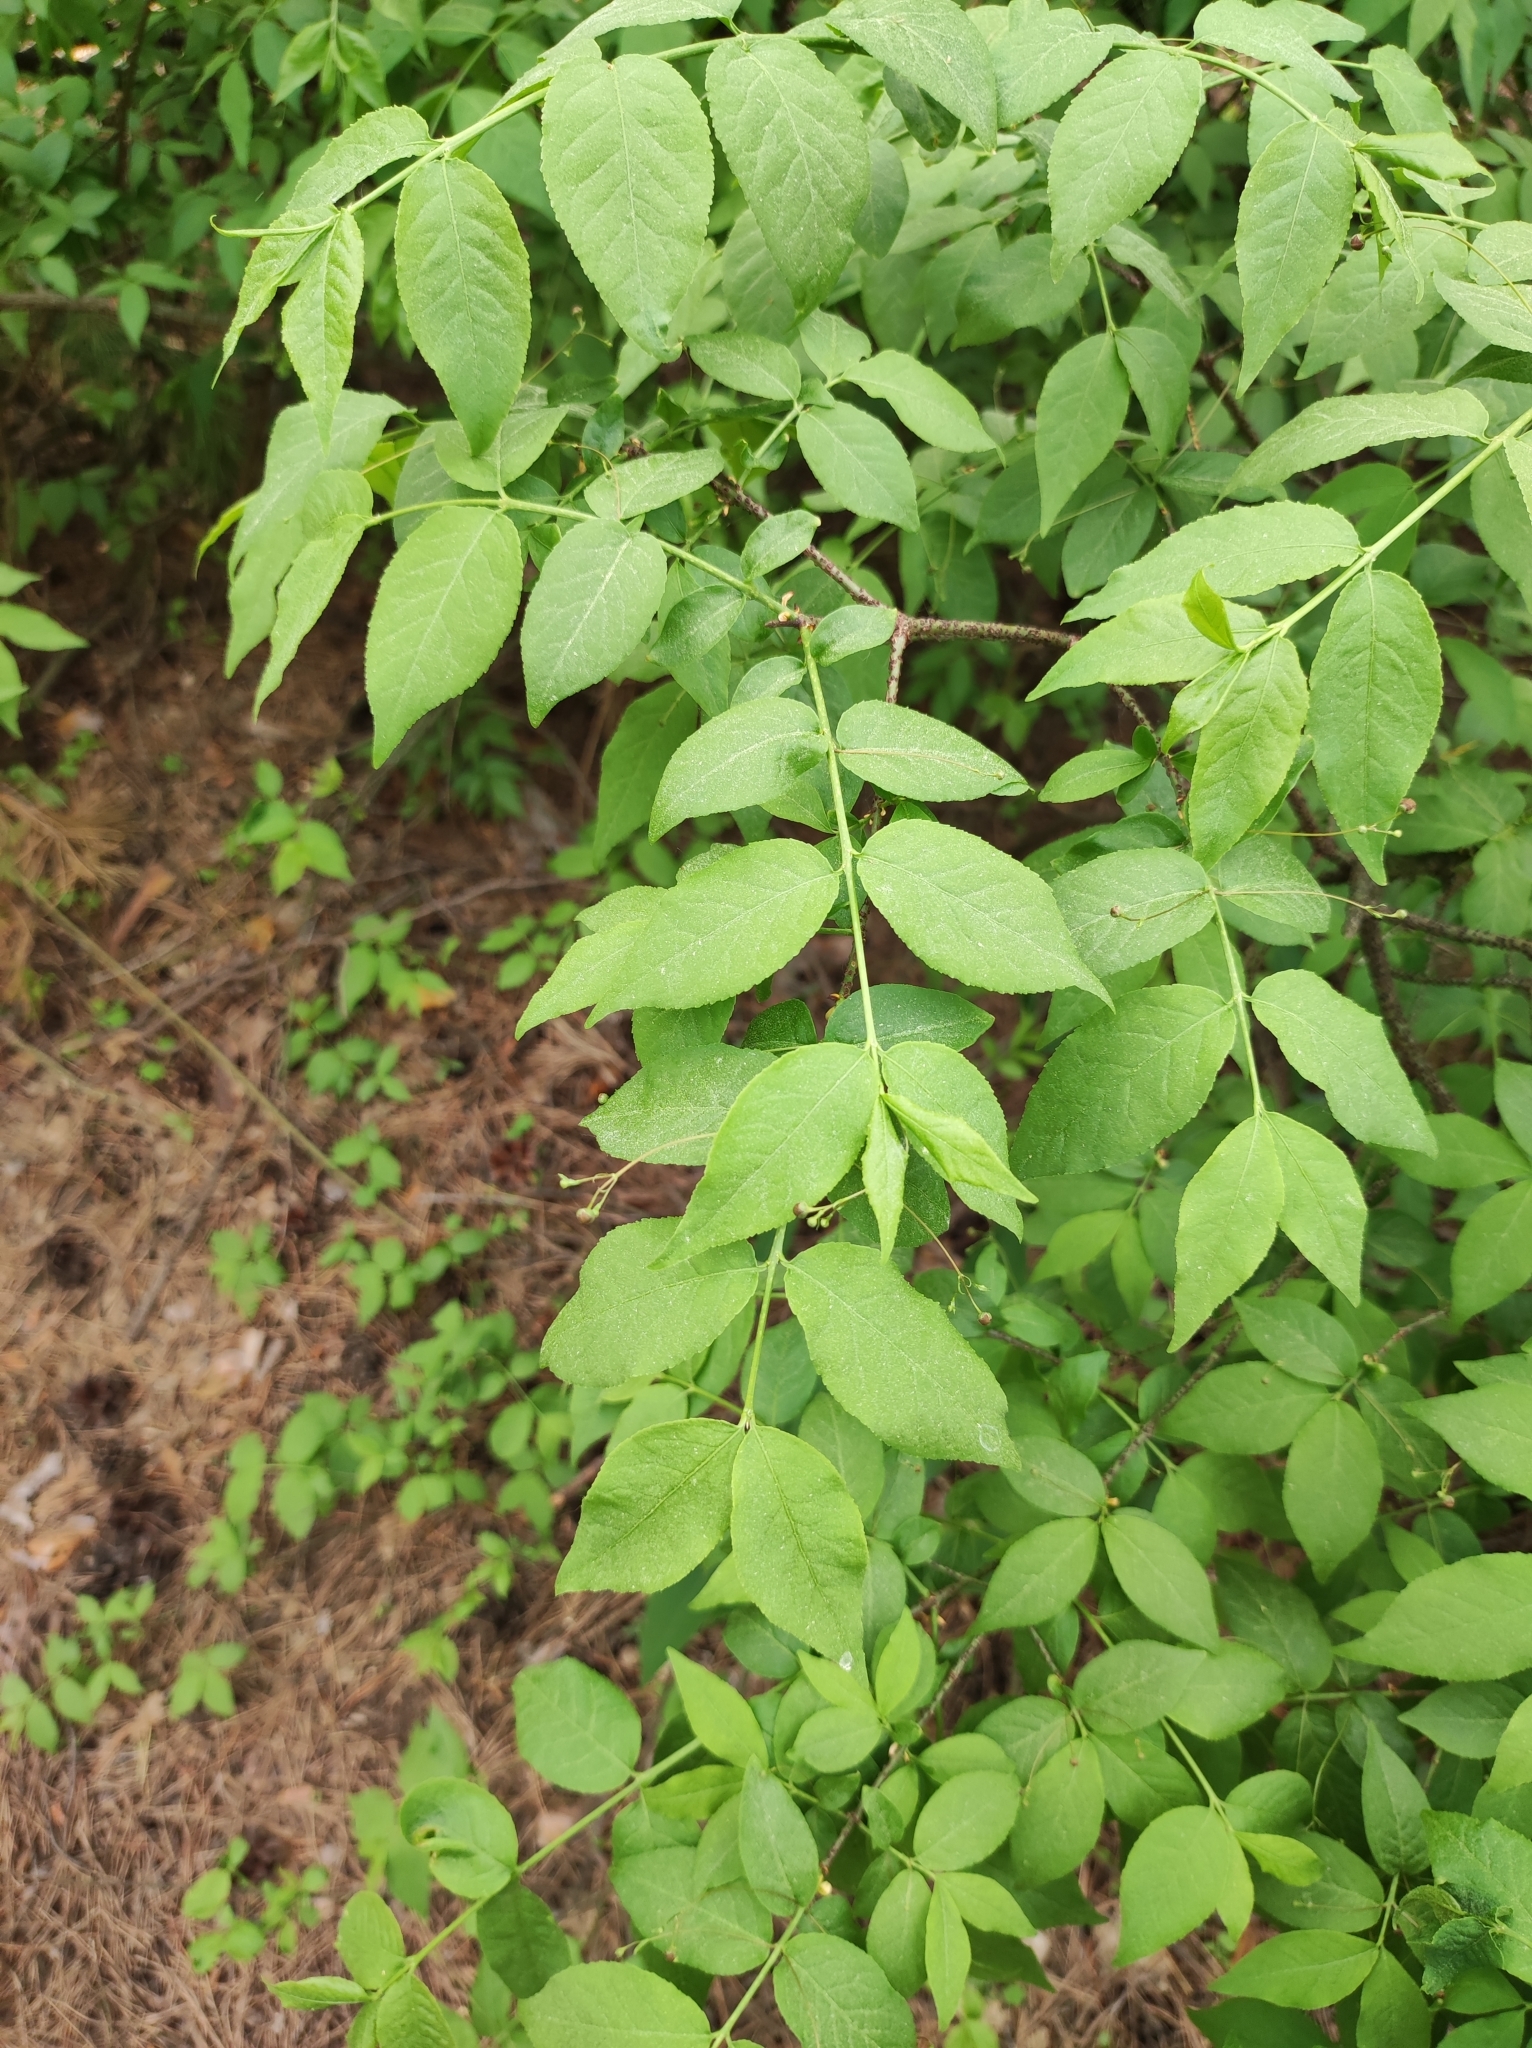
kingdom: Plantae
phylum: Tracheophyta
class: Magnoliopsida
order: Celastrales
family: Celastraceae
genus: Euonymus
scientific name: Euonymus verrucosus
